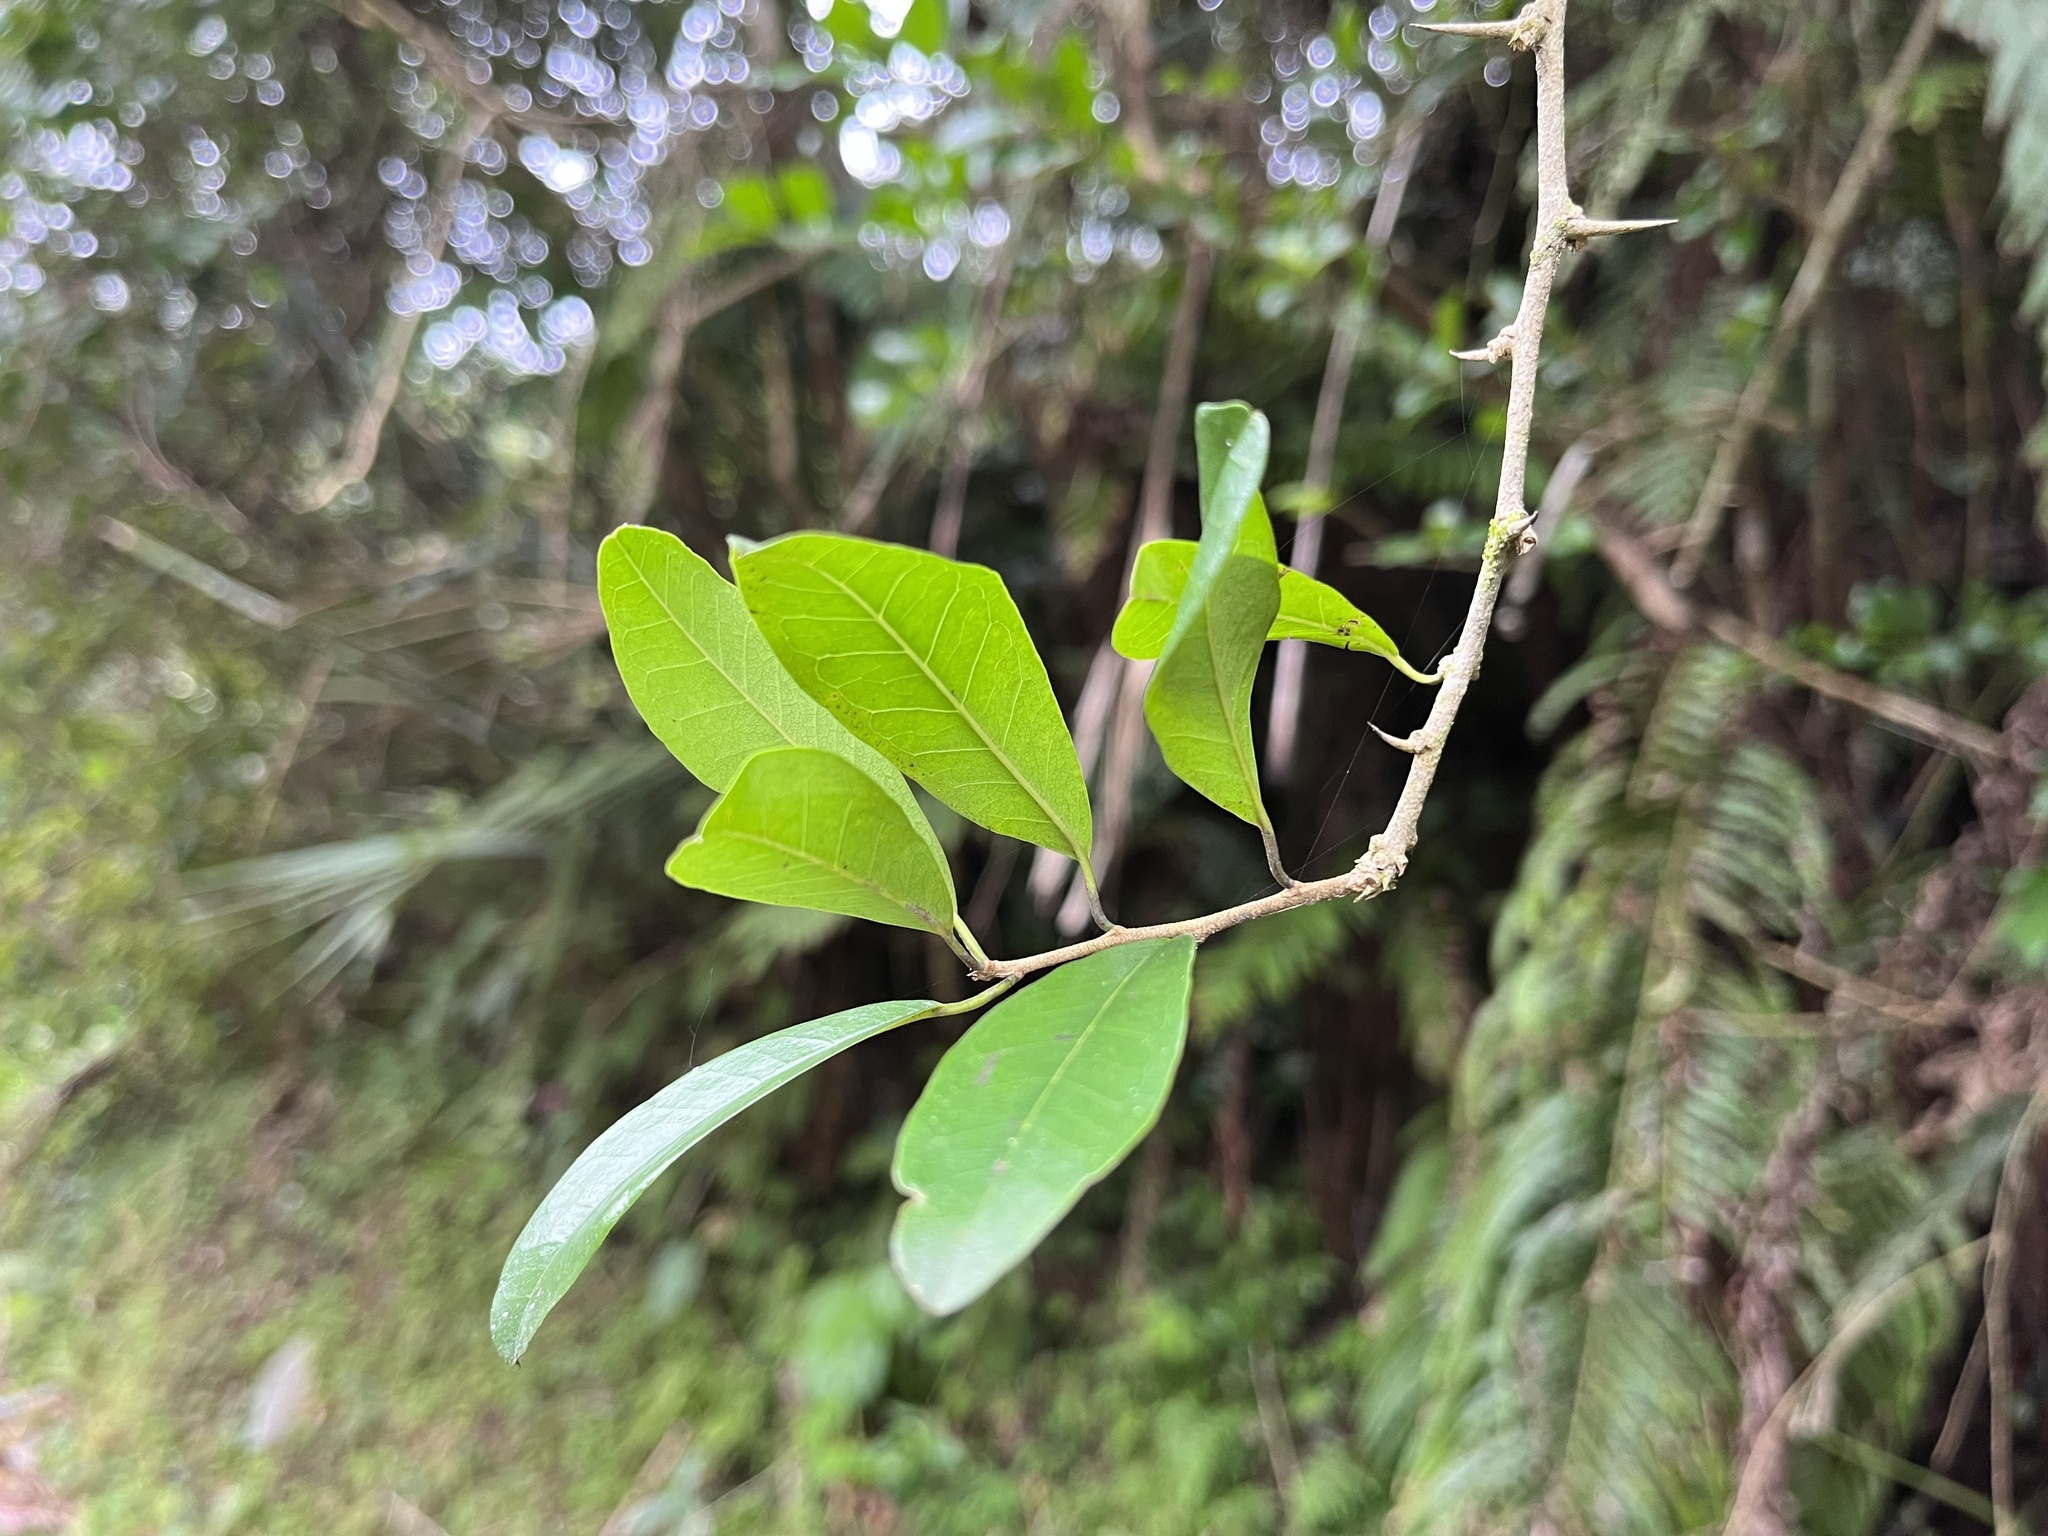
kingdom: Plantae
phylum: Tracheophyta
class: Magnoliopsida
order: Rosales
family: Moraceae
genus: Maclura
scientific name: Maclura cochinchinensis
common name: Cockspurthorn
